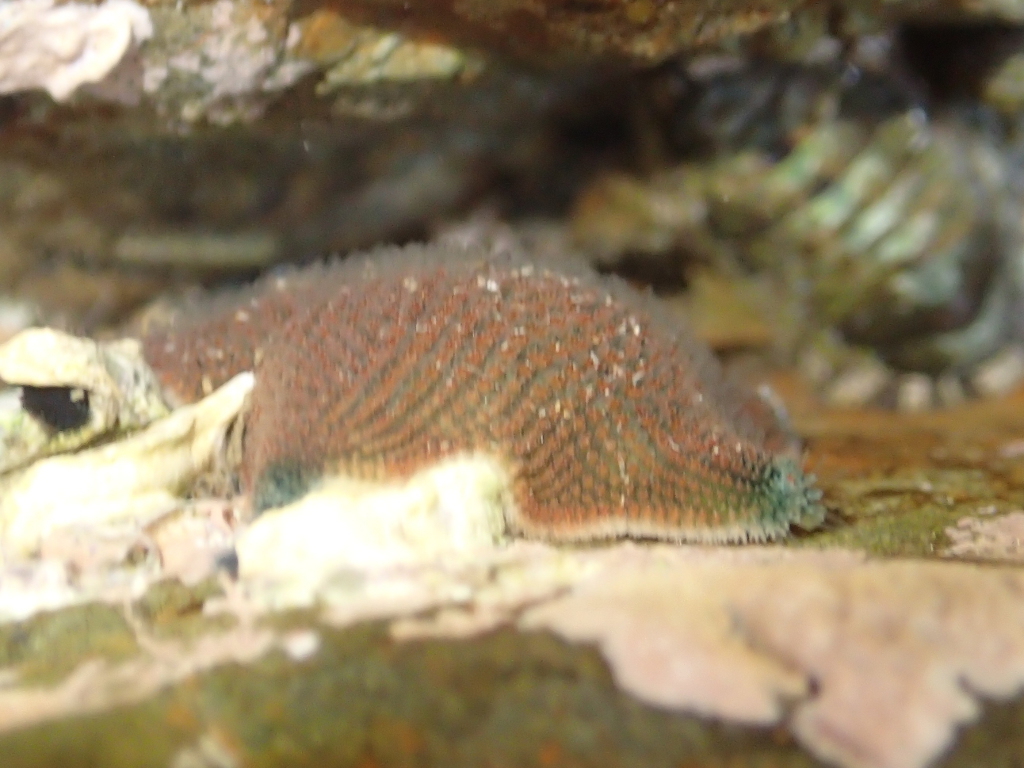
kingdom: Animalia
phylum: Echinodermata
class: Asteroidea
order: Valvatida
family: Asterinidae
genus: Patiriella
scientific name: Patiriella regularis
